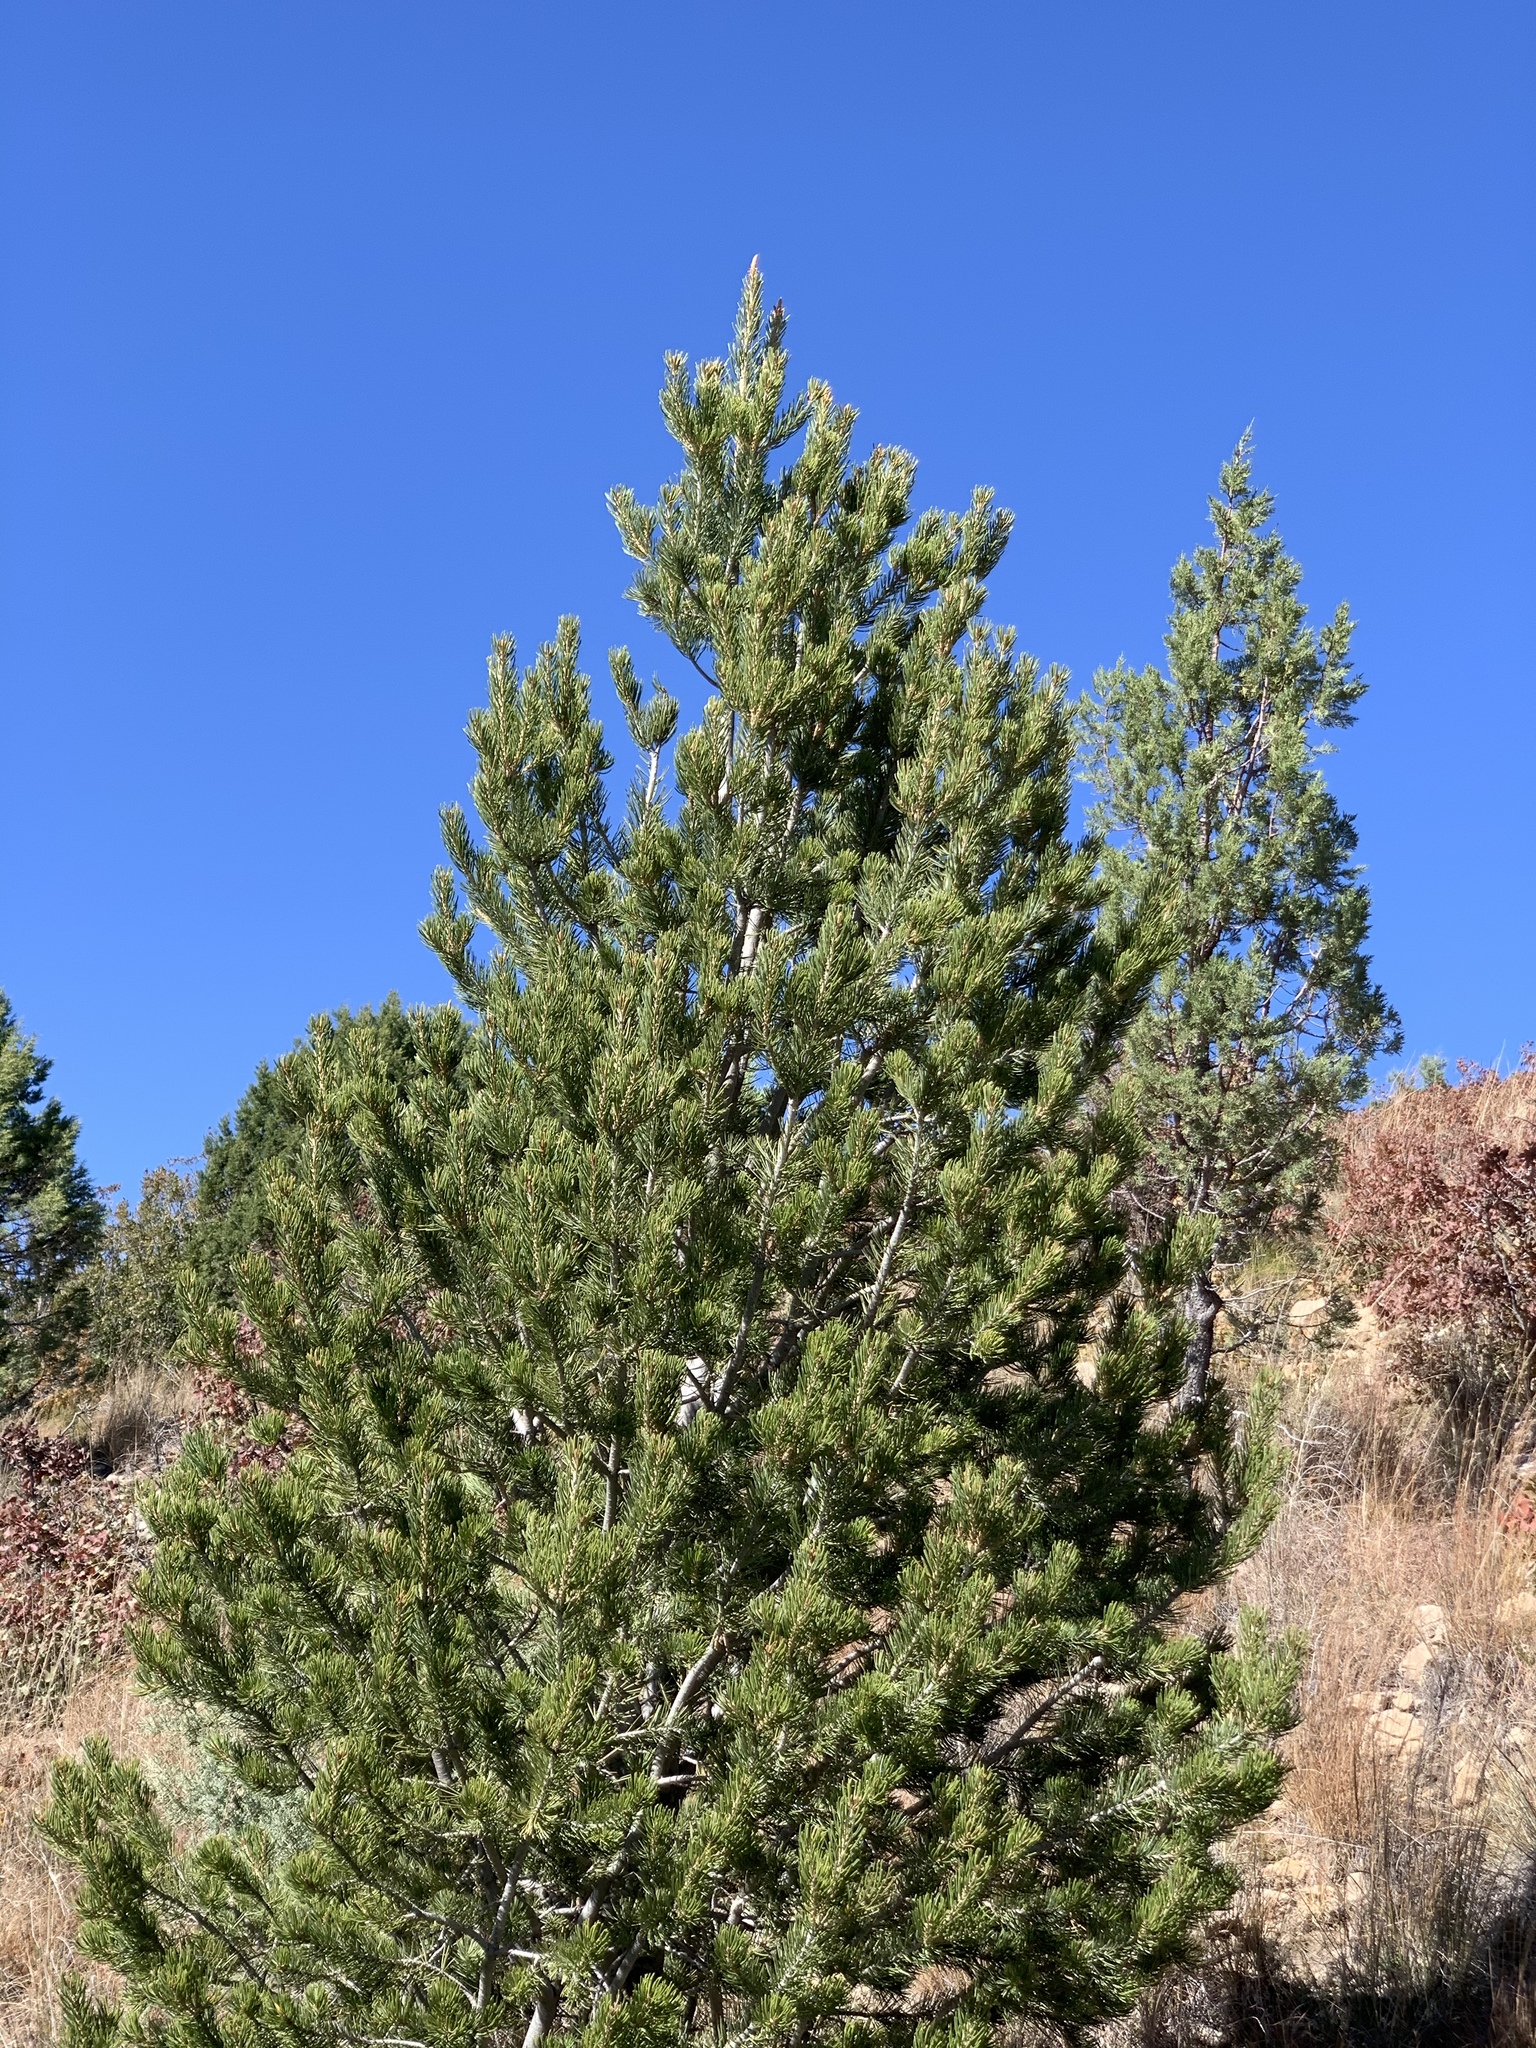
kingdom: Plantae
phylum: Tracheophyta
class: Pinopsida
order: Pinales
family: Pinaceae
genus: Pinus
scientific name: Pinus edulis
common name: Colorado pinyon
